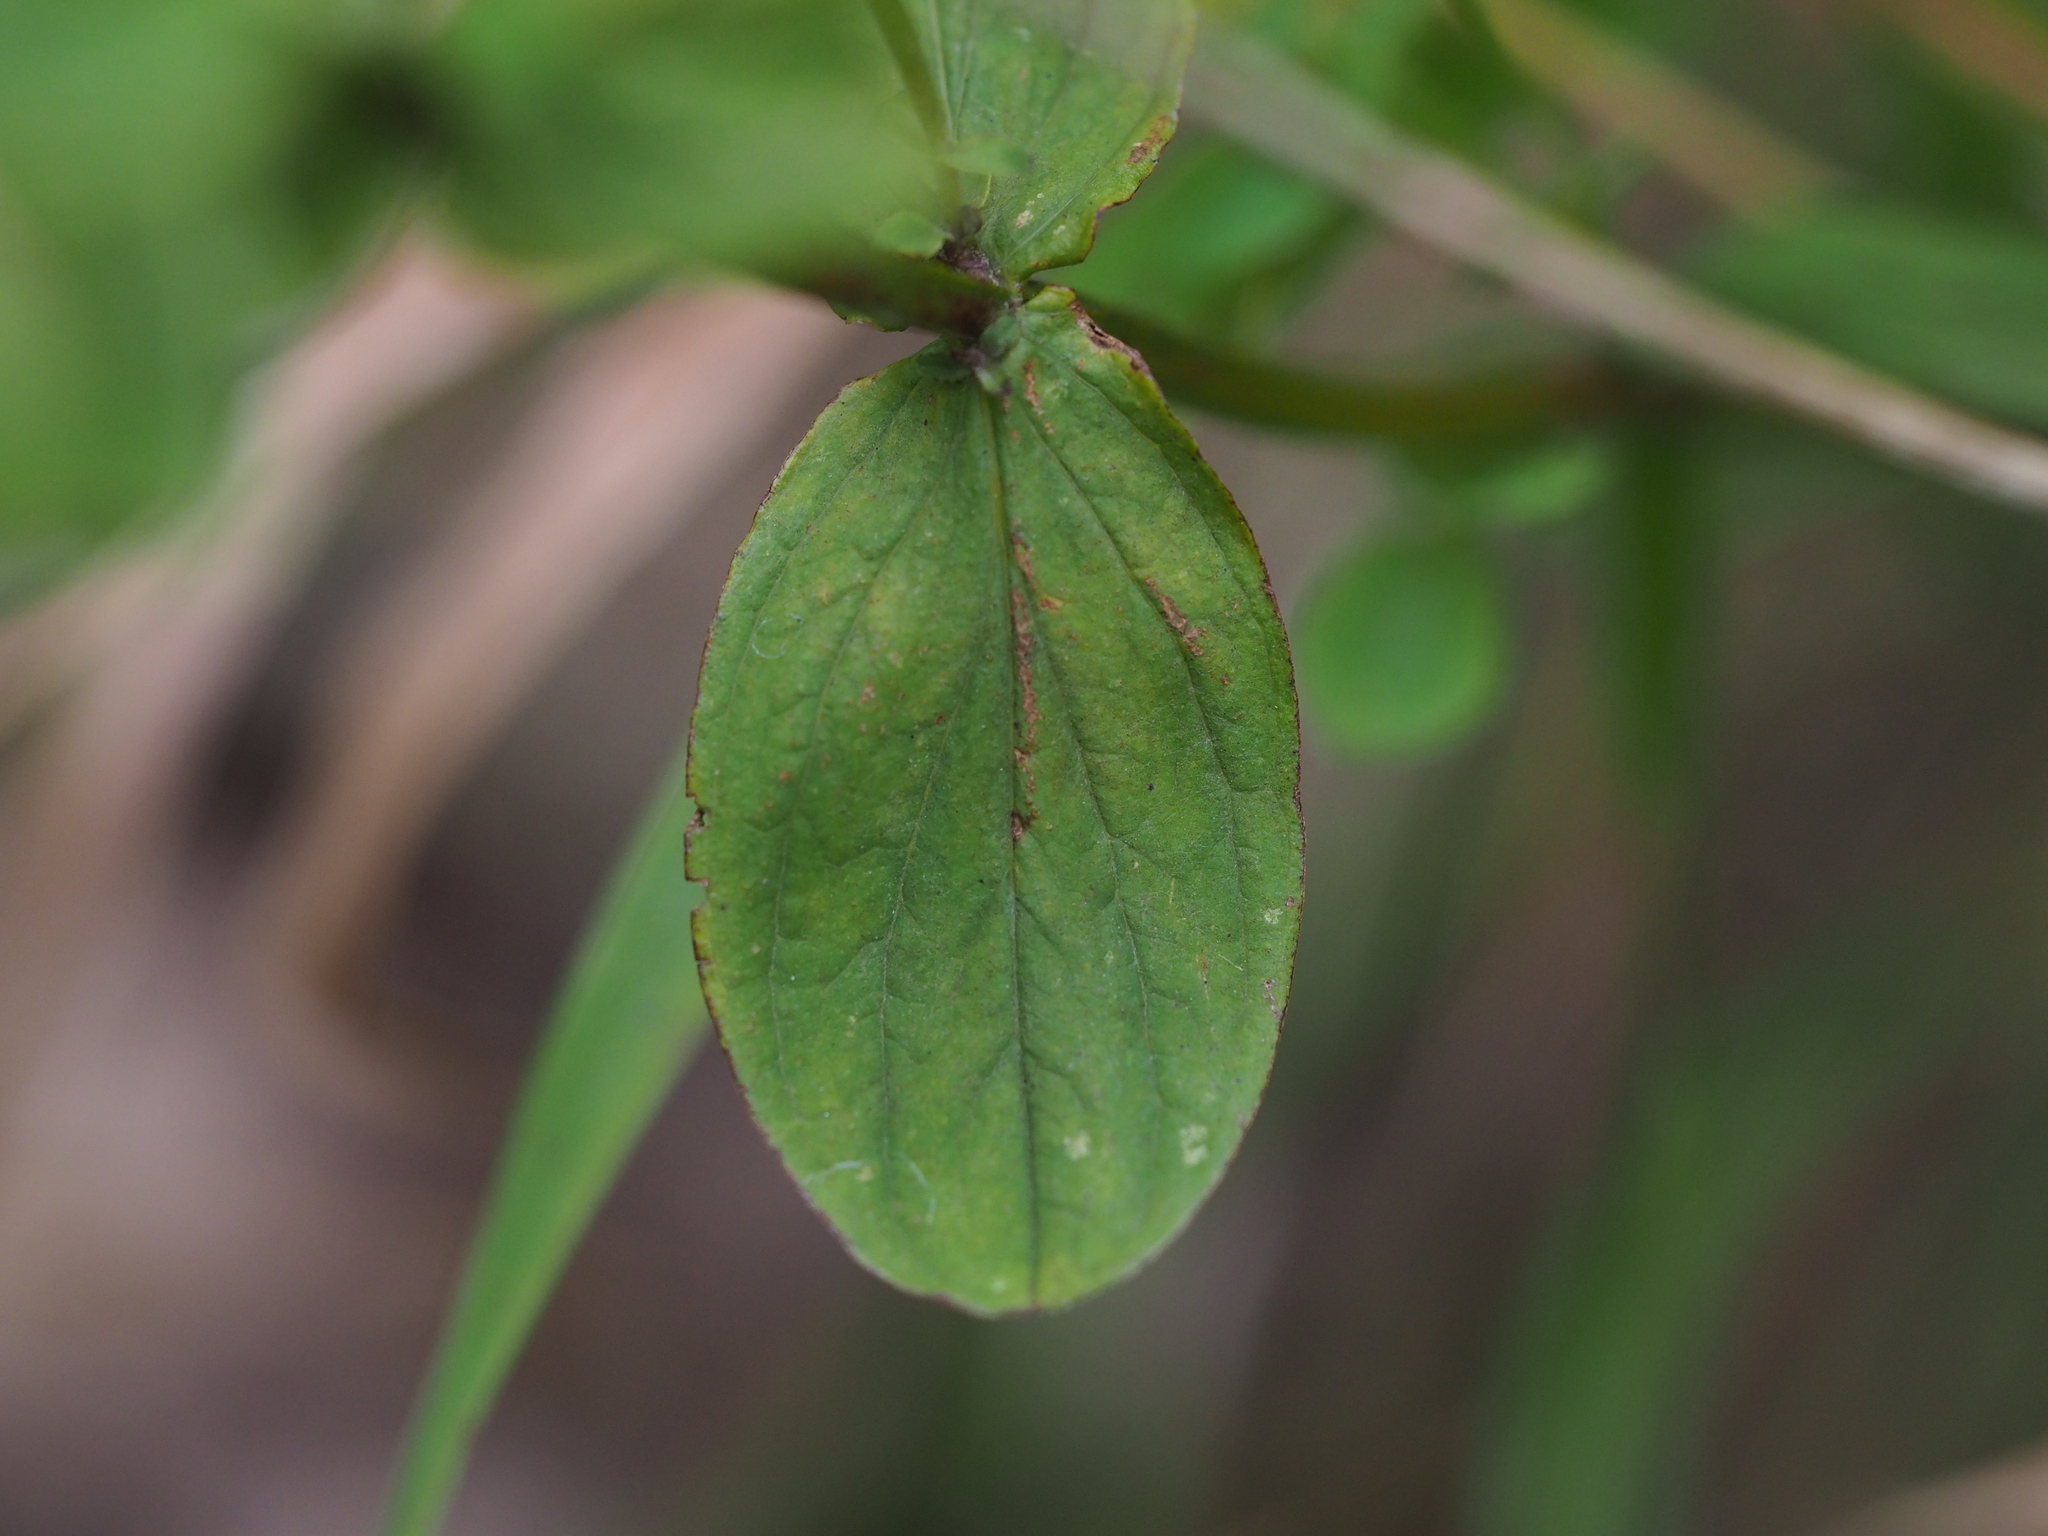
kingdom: Plantae
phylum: Tracheophyta
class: Magnoliopsida
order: Malpighiales
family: Hypericaceae
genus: Hypericum
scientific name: Hypericum tetrapterum
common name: Square-stalked st. john's-wort
